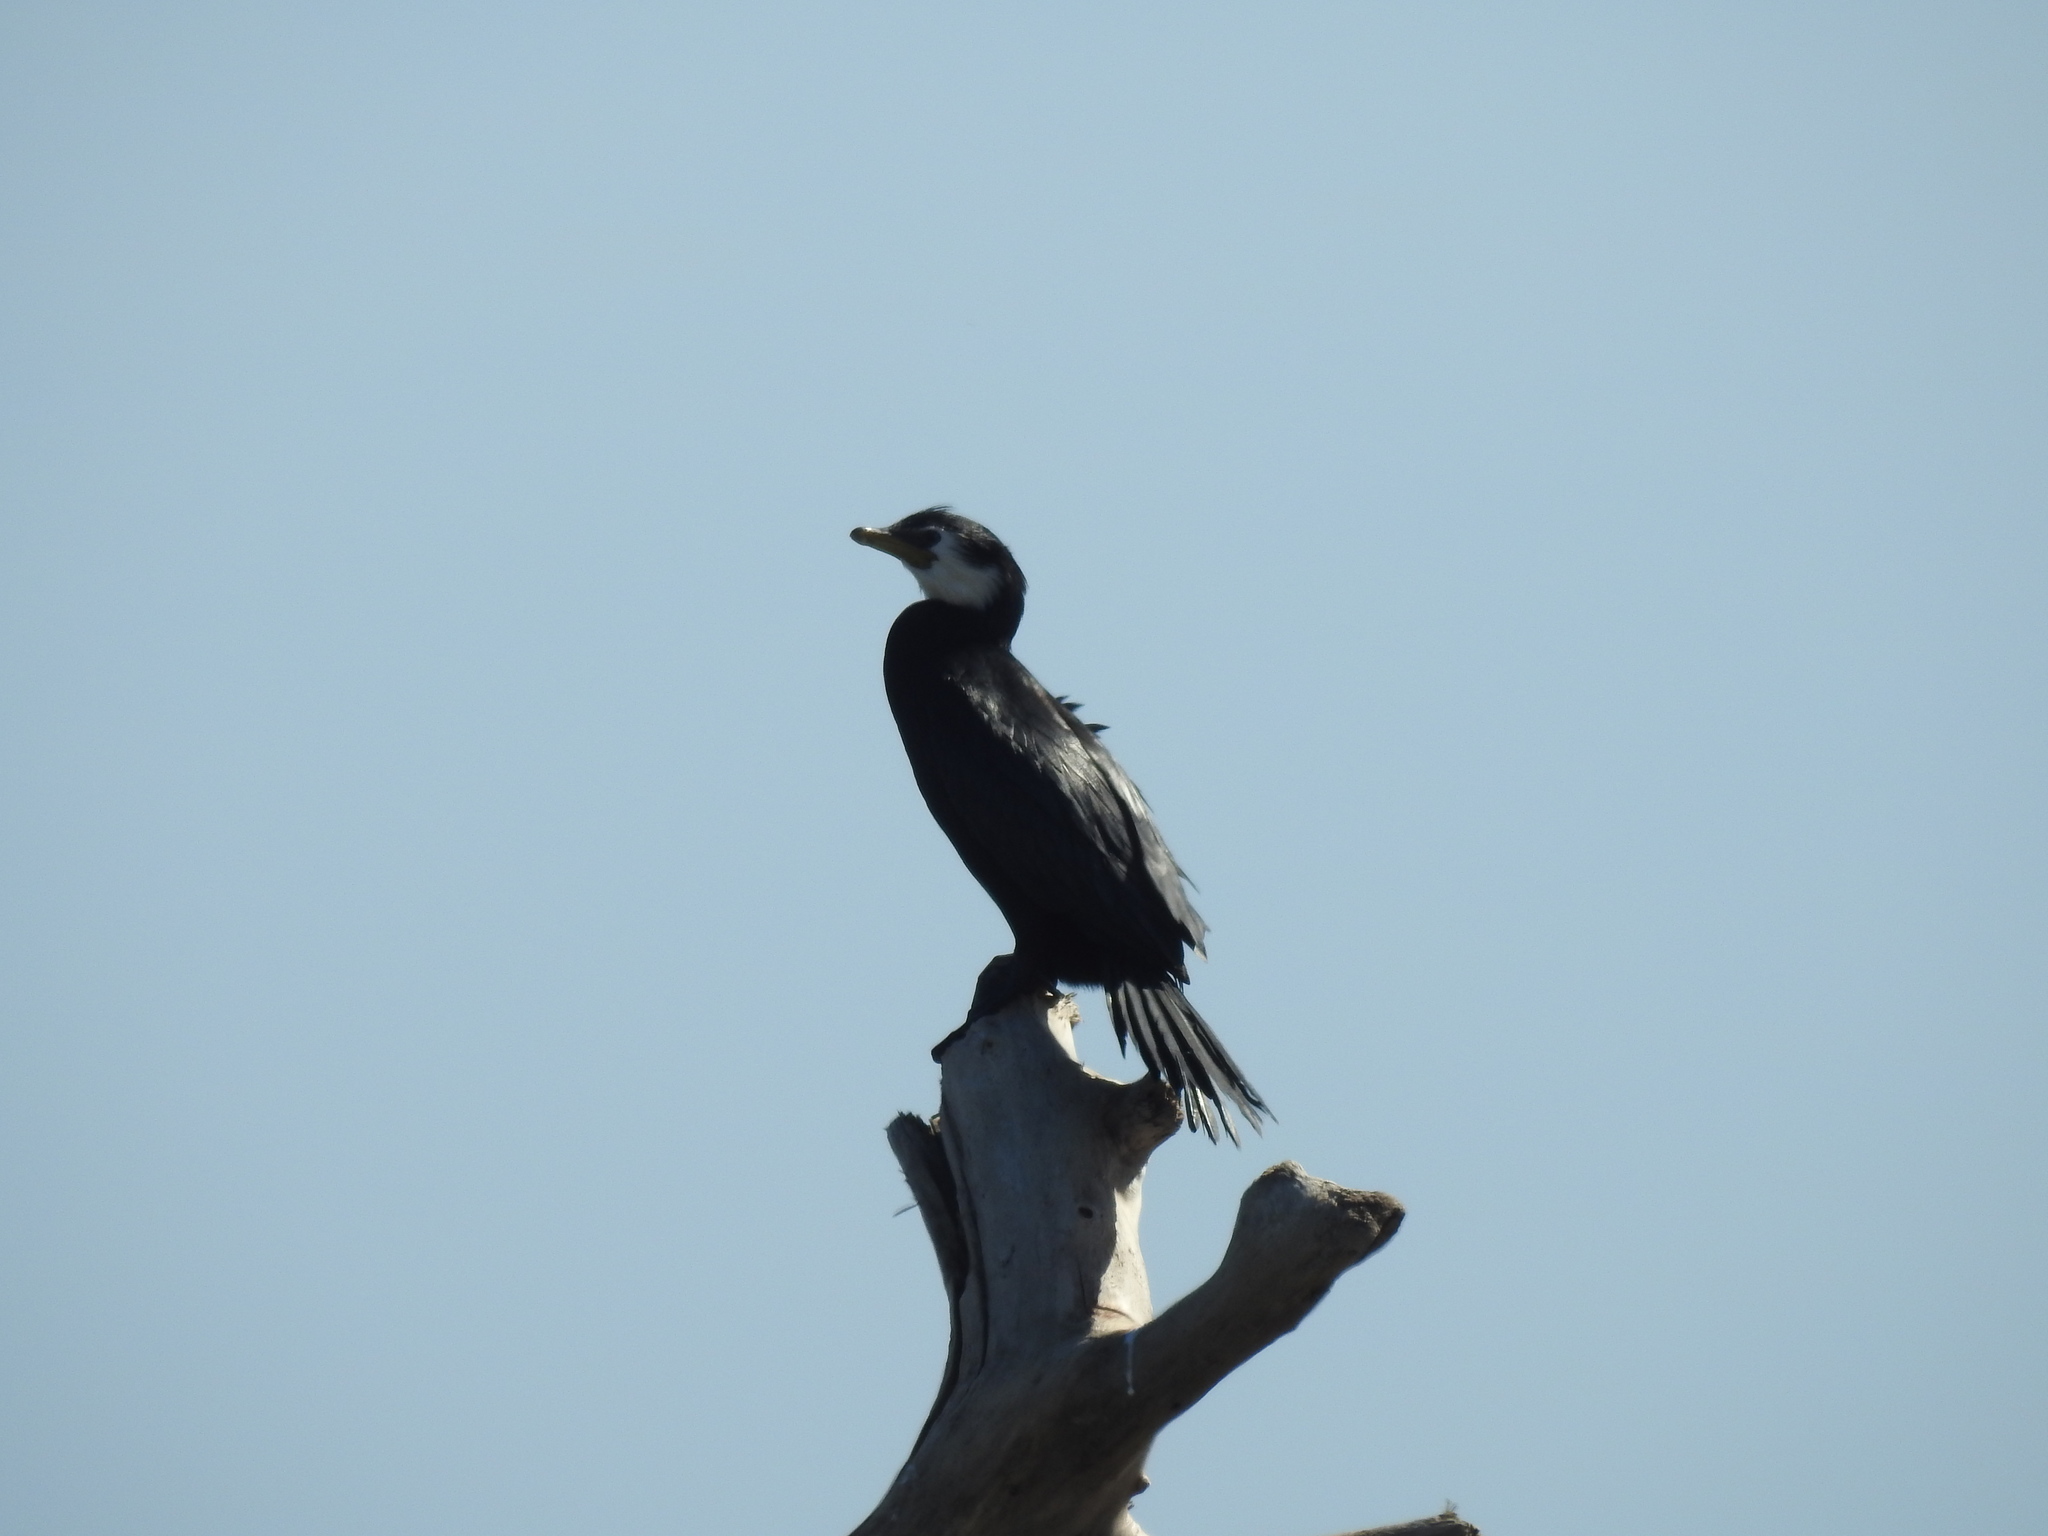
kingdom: Animalia
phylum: Chordata
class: Aves
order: Suliformes
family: Phalacrocoracidae
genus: Microcarbo
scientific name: Microcarbo melanoleucos
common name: Little pied cormorant
